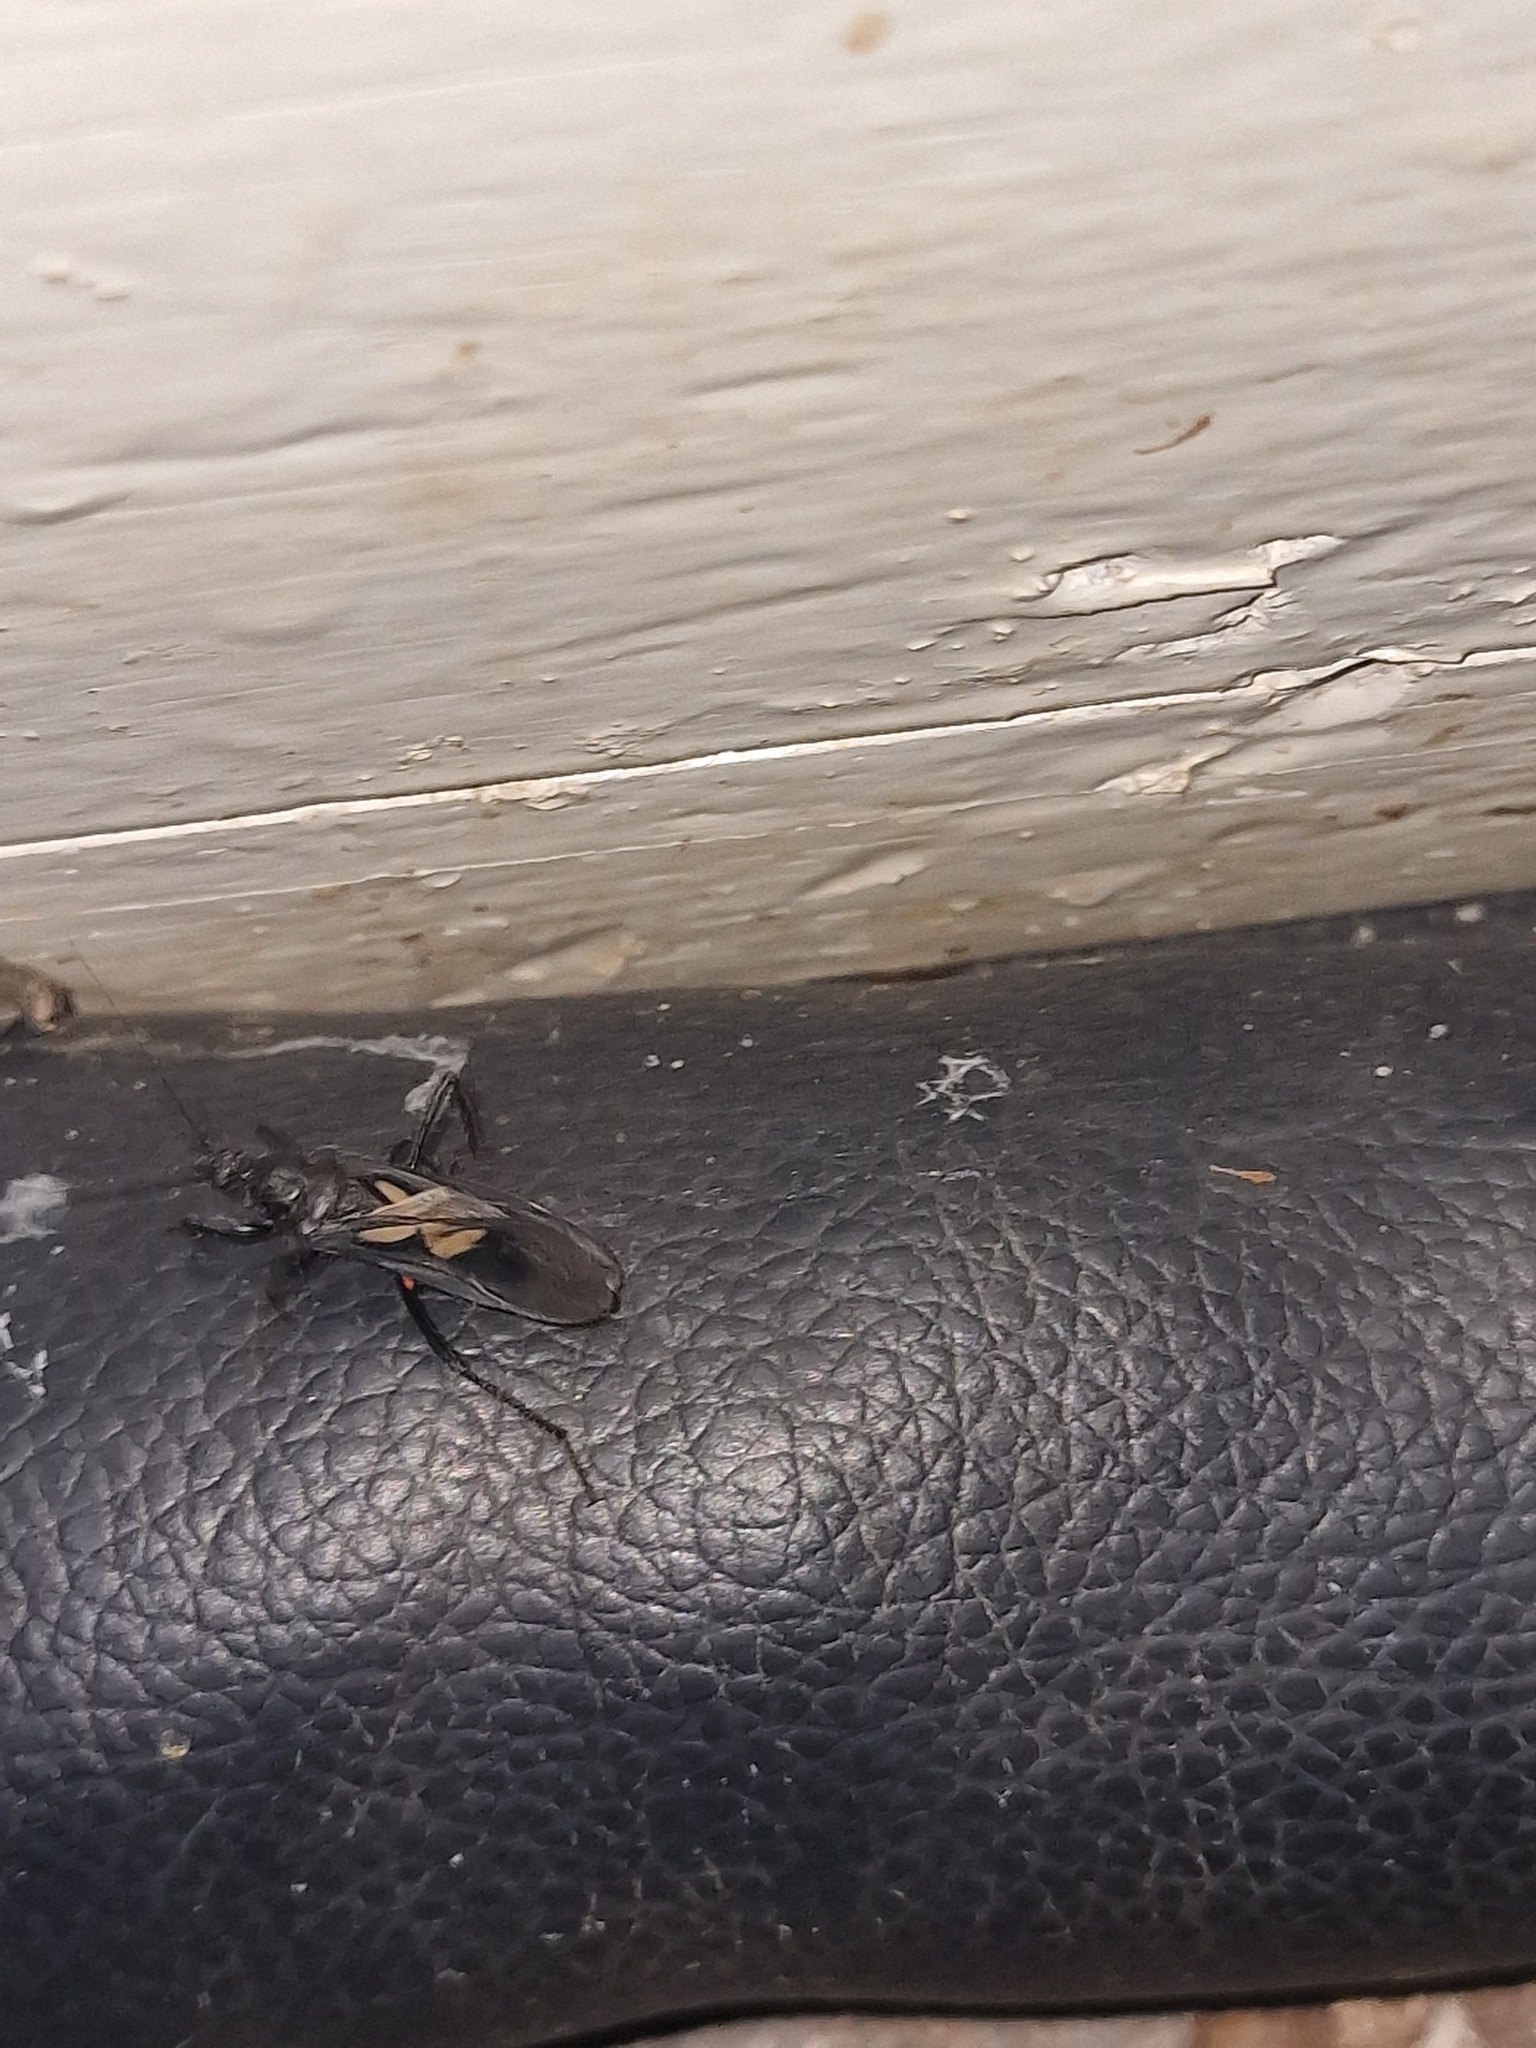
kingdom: Animalia
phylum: Arthropoda
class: Insecta
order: Hemiptera
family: Reduviidae
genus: Ectomocoris
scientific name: Ectomocoris cruciger
